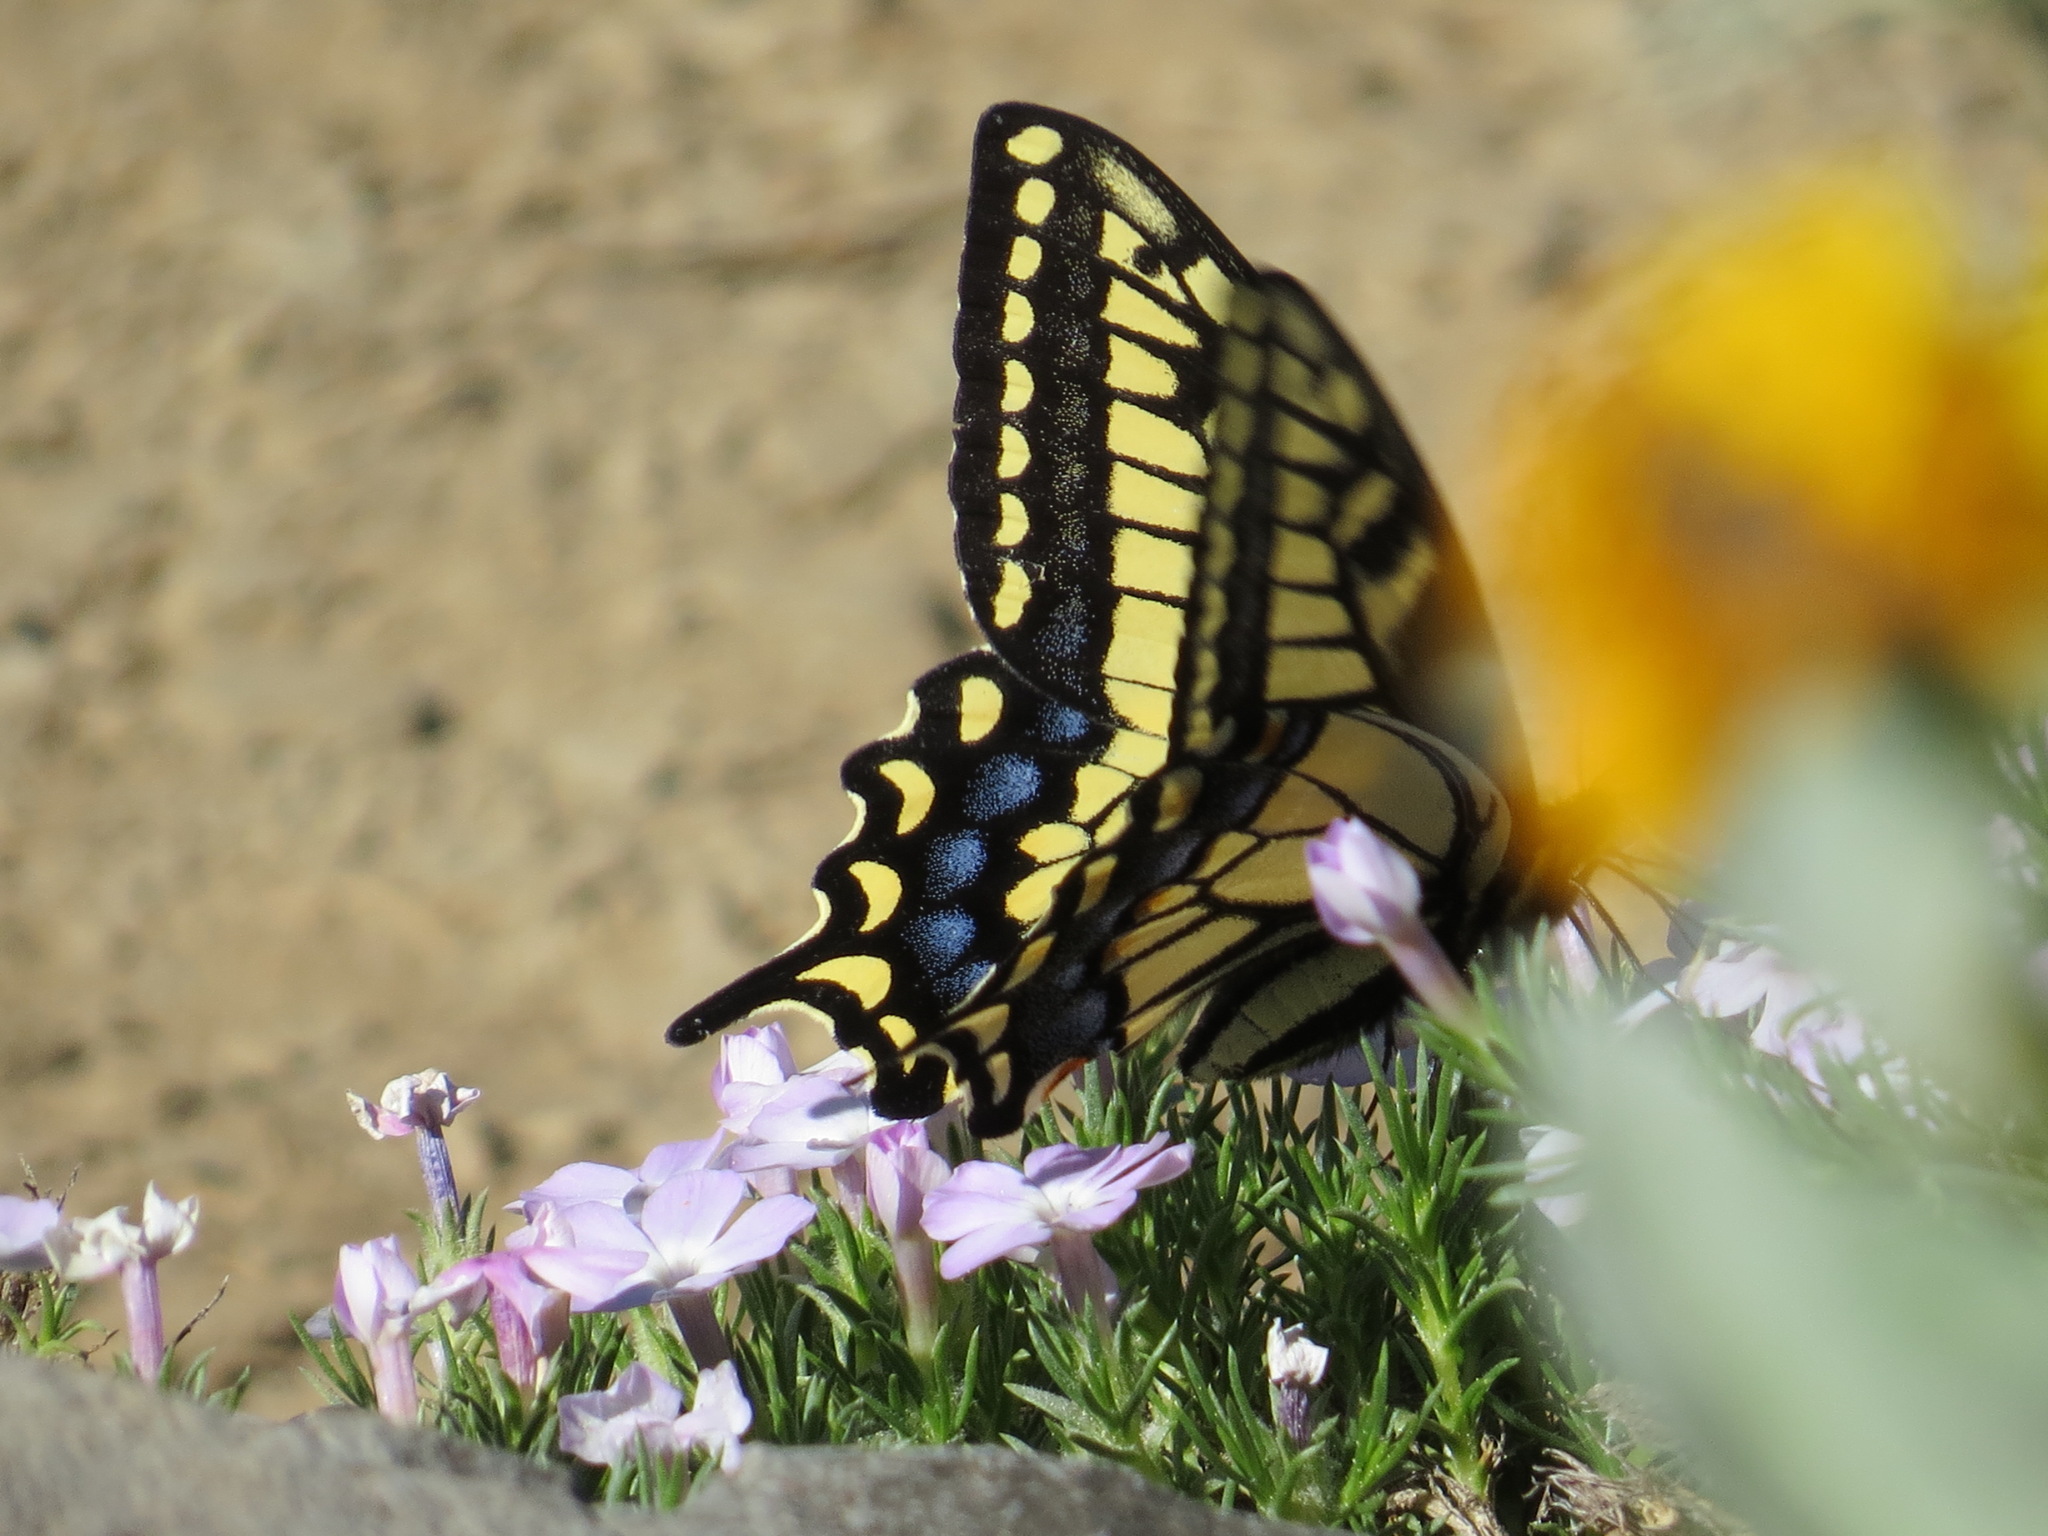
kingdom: Animalia
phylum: Arthropoda
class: Insecta
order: Lepidoptera
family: Papilionidae
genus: Papilio
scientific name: Papilio zelicaon
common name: Anise swallowtail
